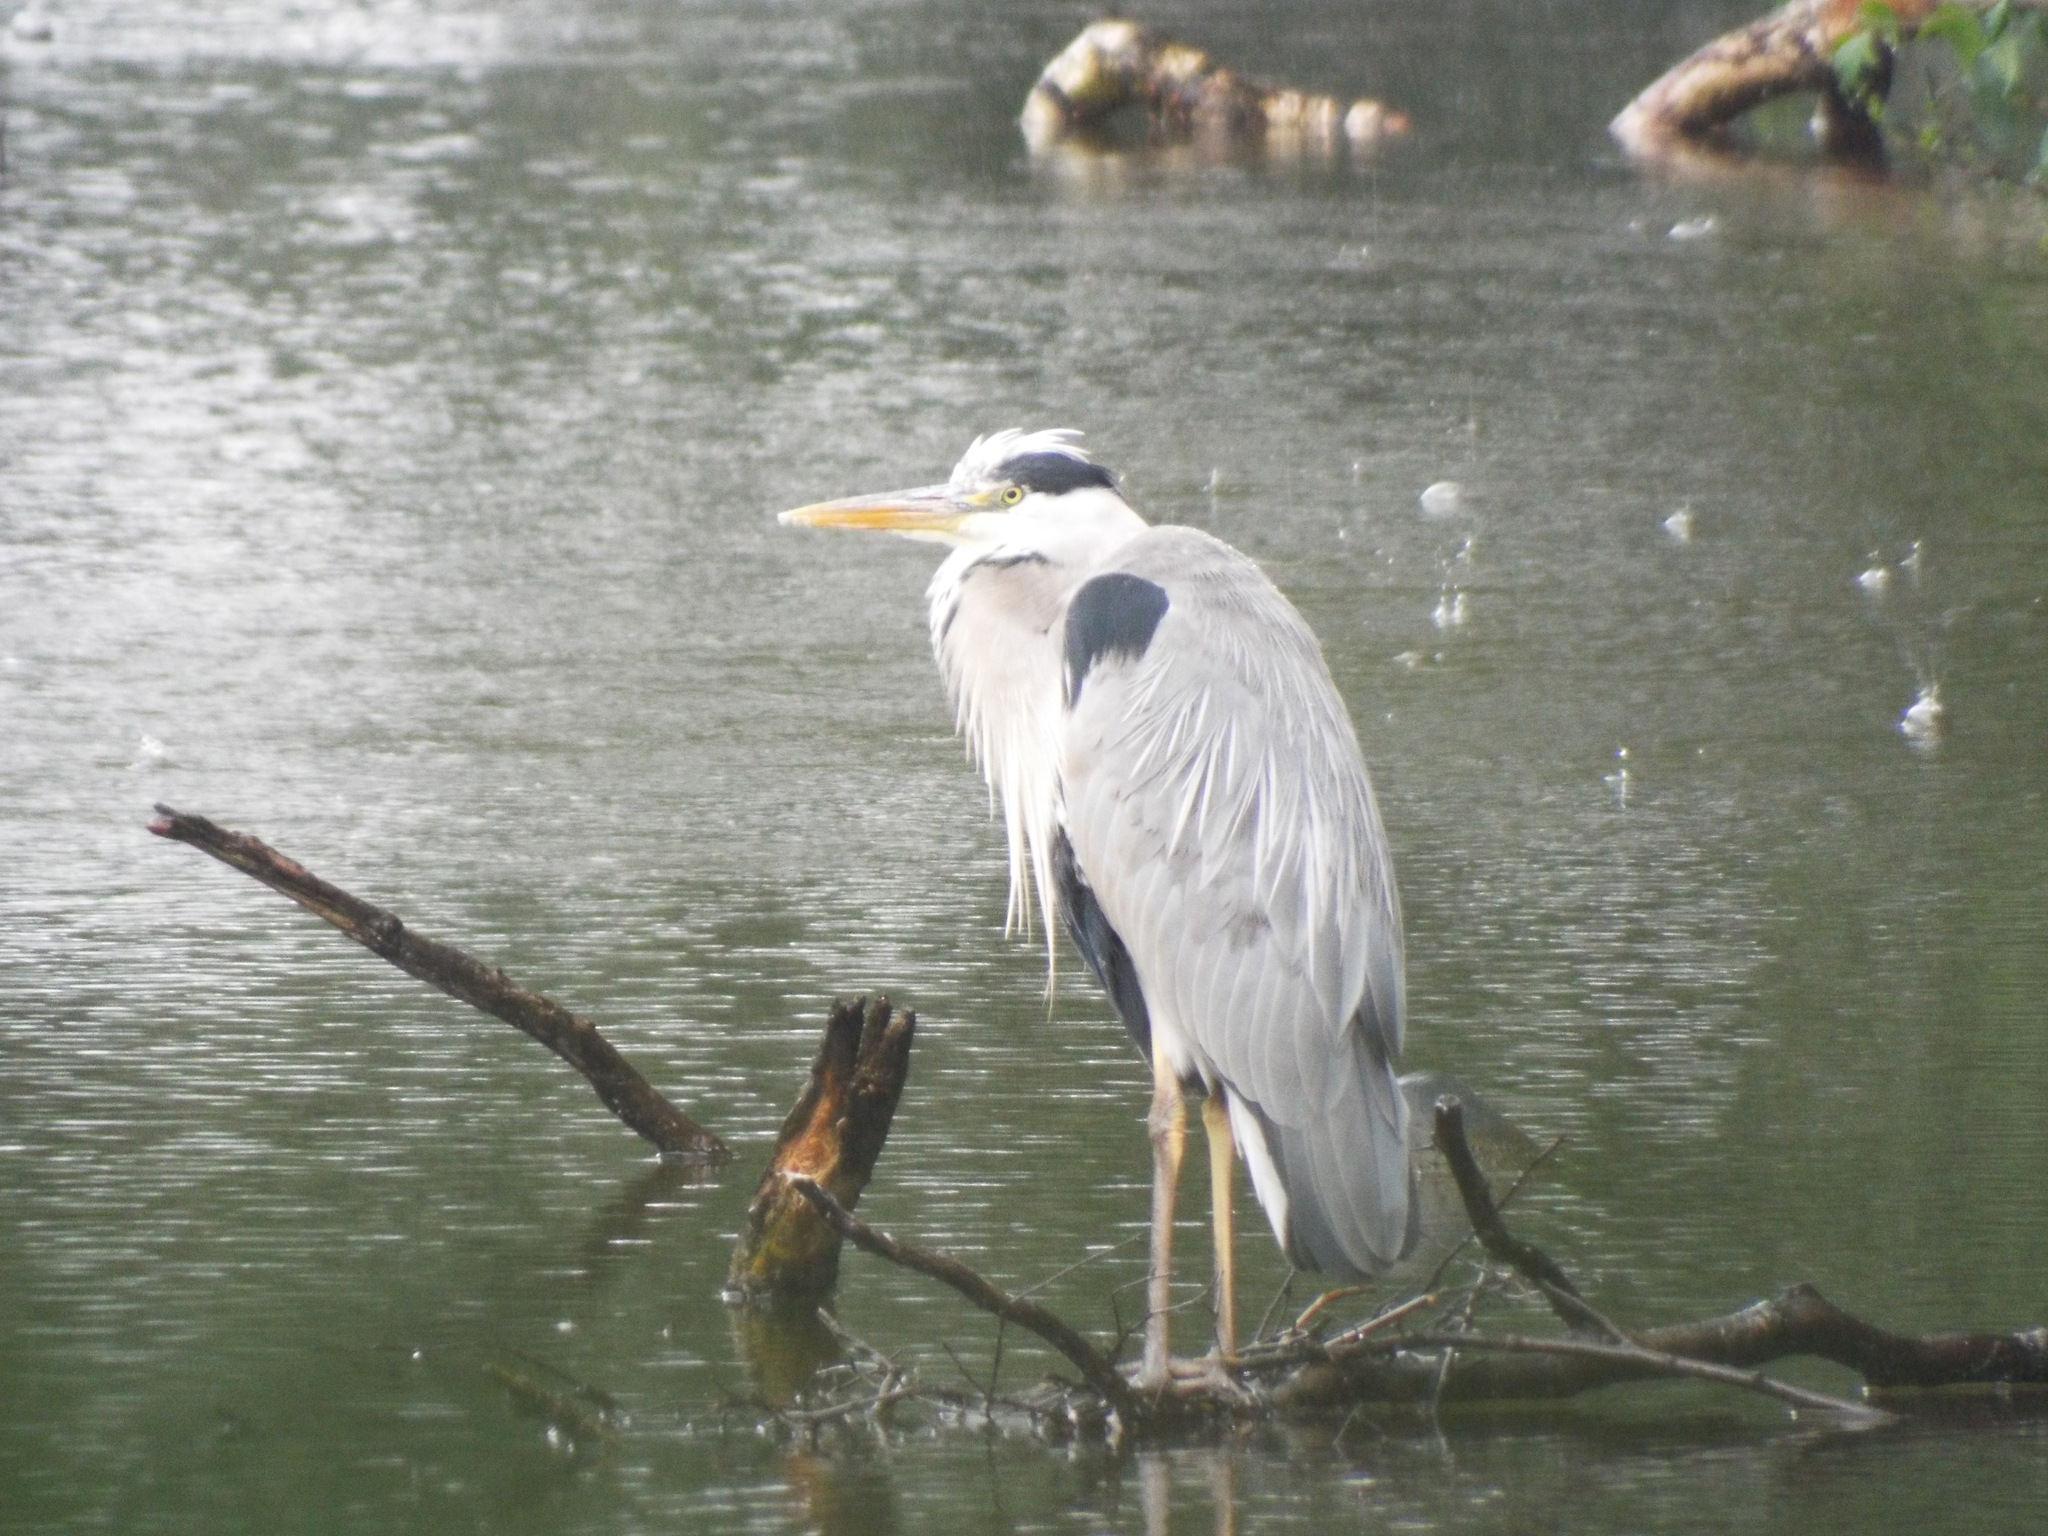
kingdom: Animalia
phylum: Chordata
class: Aves
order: Pelecaniformes
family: Ardeidae
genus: Ardea
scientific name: Ardea cinerea
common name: Grey heron
